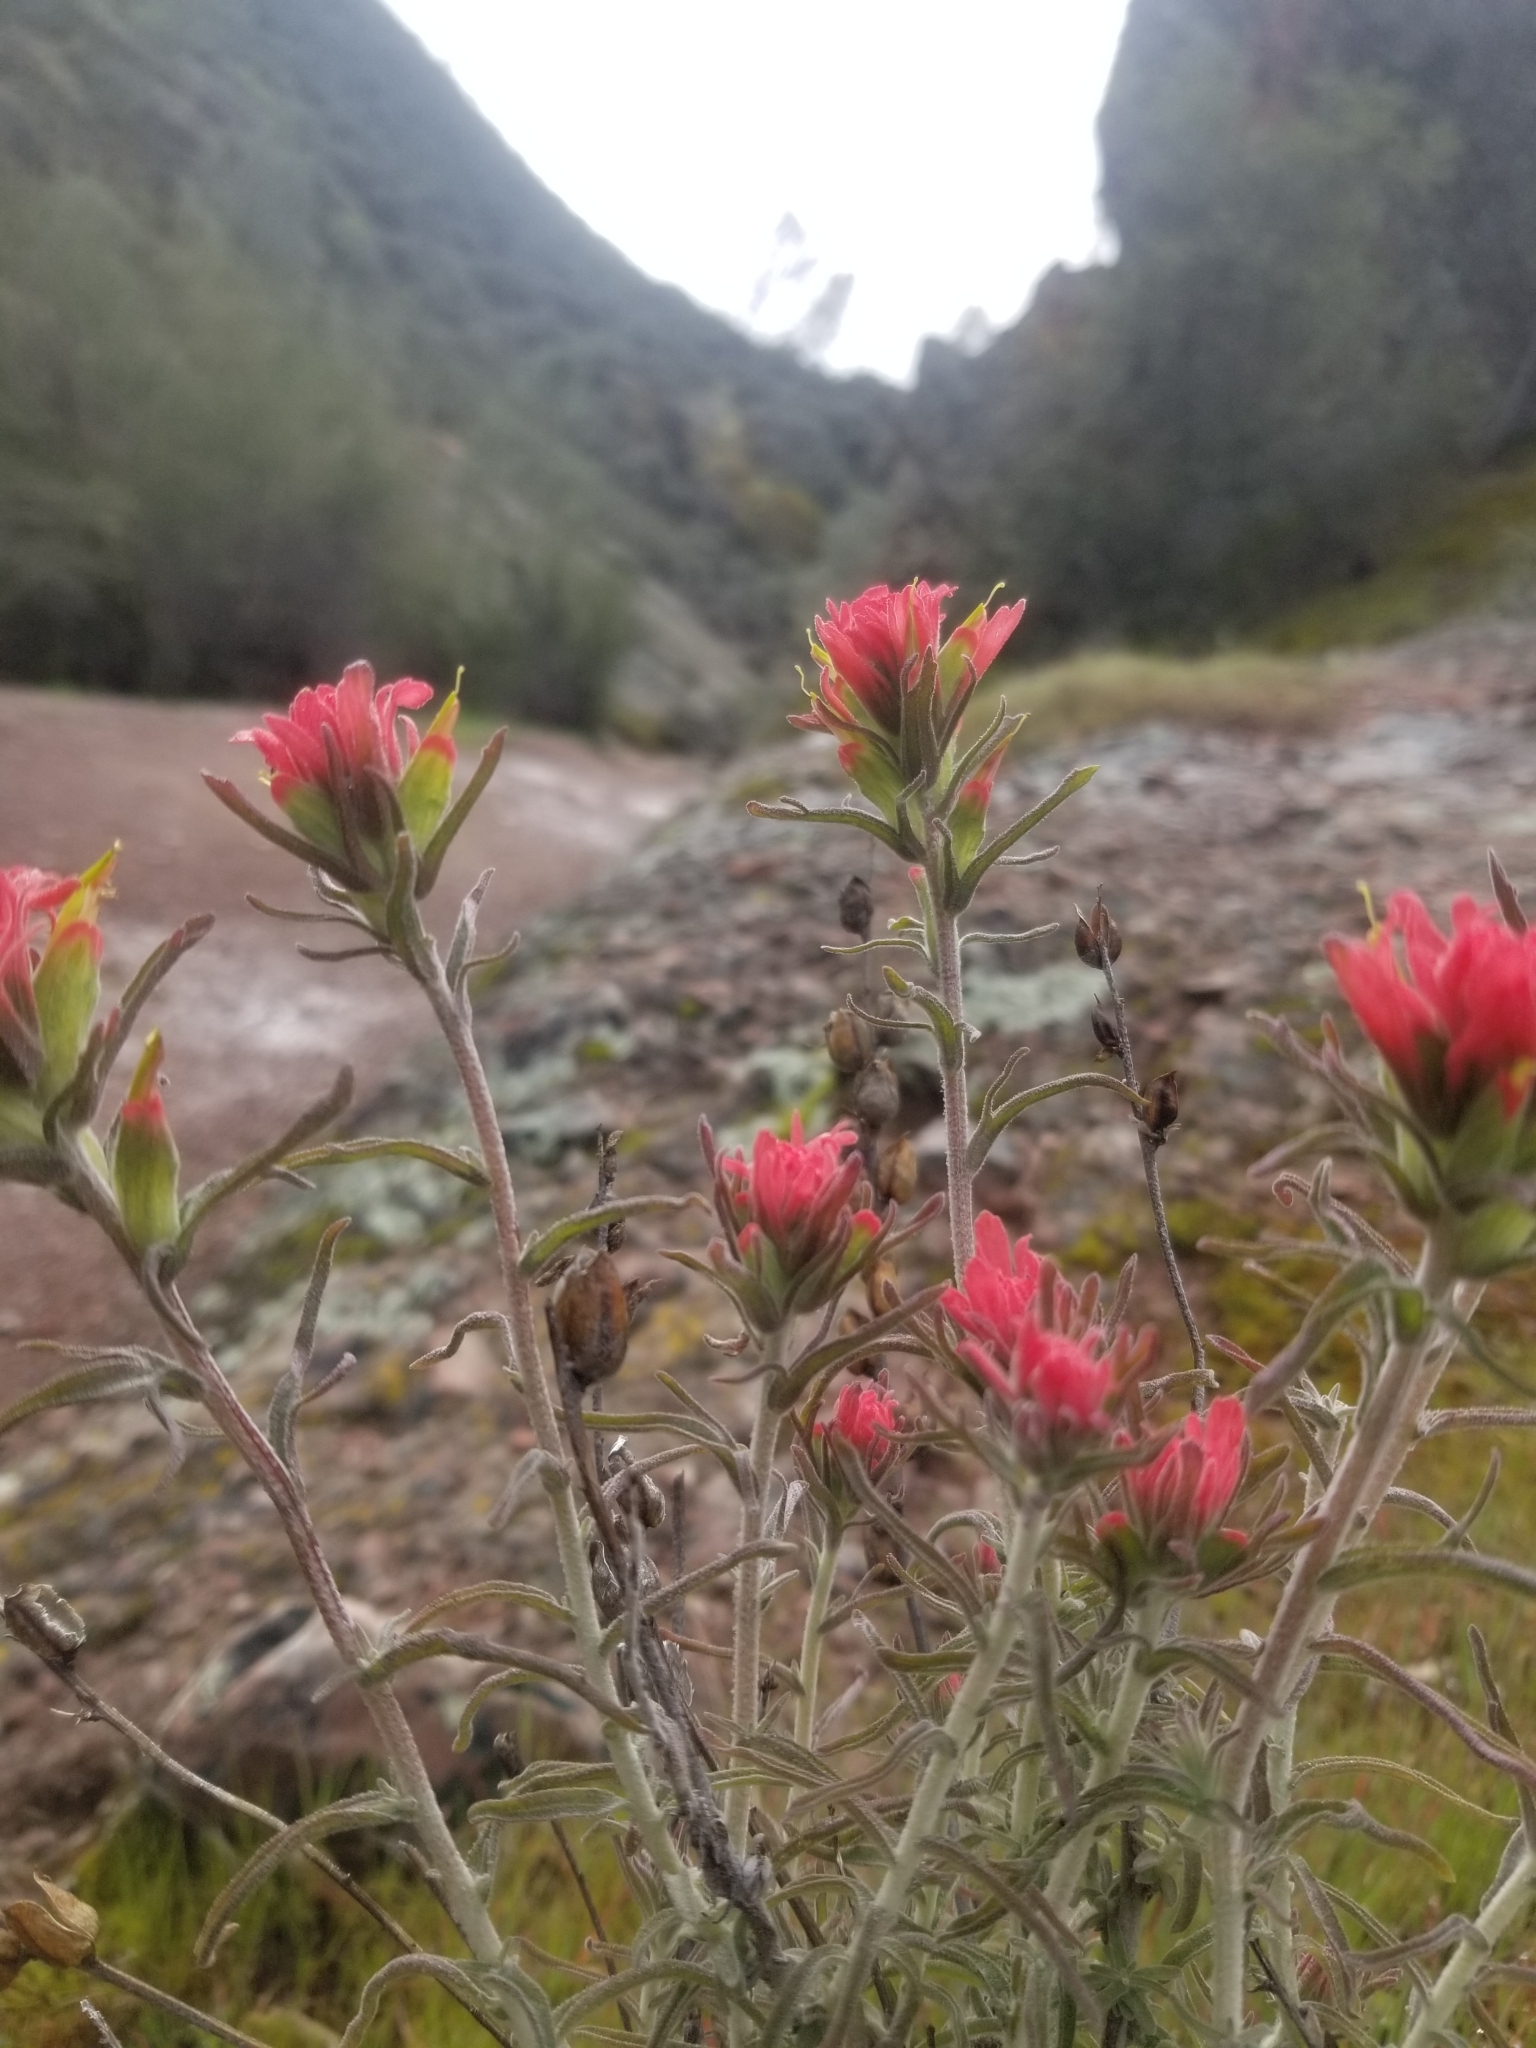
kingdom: Plantae
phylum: Tracheophyta
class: Magnoliopsida
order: Lamiales
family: Orobanchaceae
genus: Castilleja
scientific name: Castilleja foliolosa
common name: Woolly indian paintbrush
